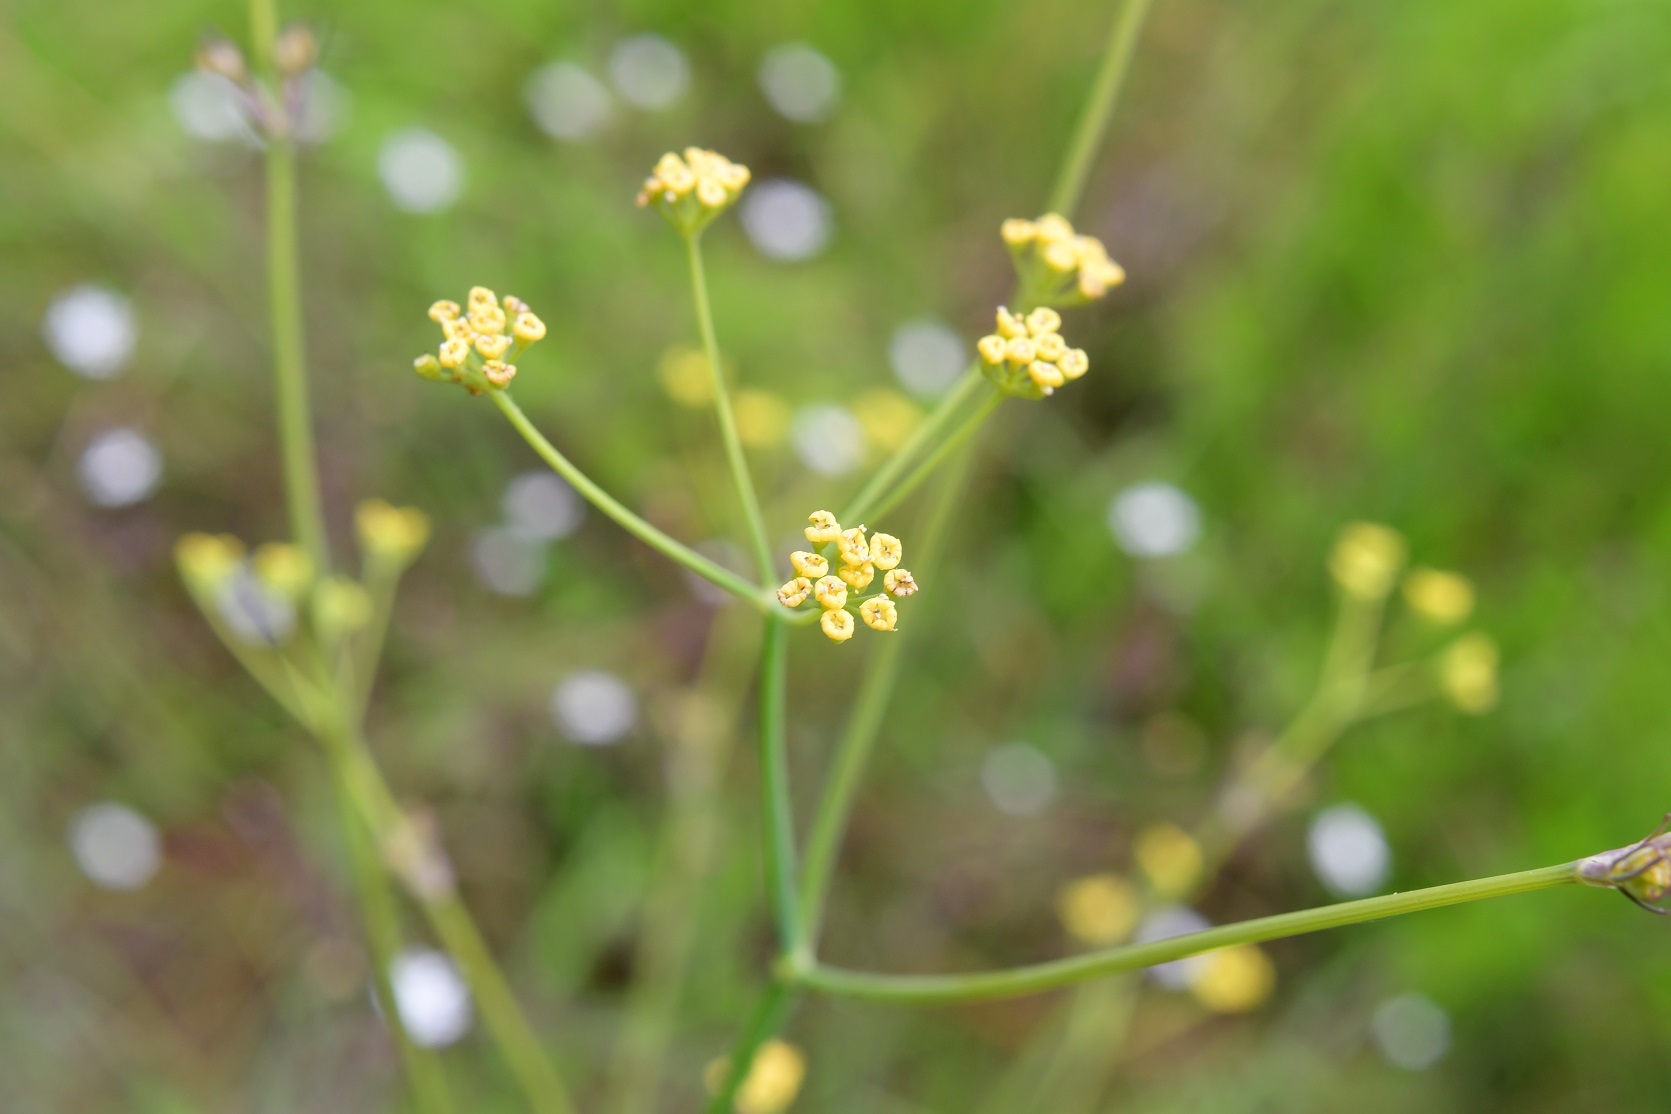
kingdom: Plantae
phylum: Tracheophyta
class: Magnoliopsida
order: Apiales
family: Apiaceae
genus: Donnellsmithia
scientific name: Donnellsmithia juncea
